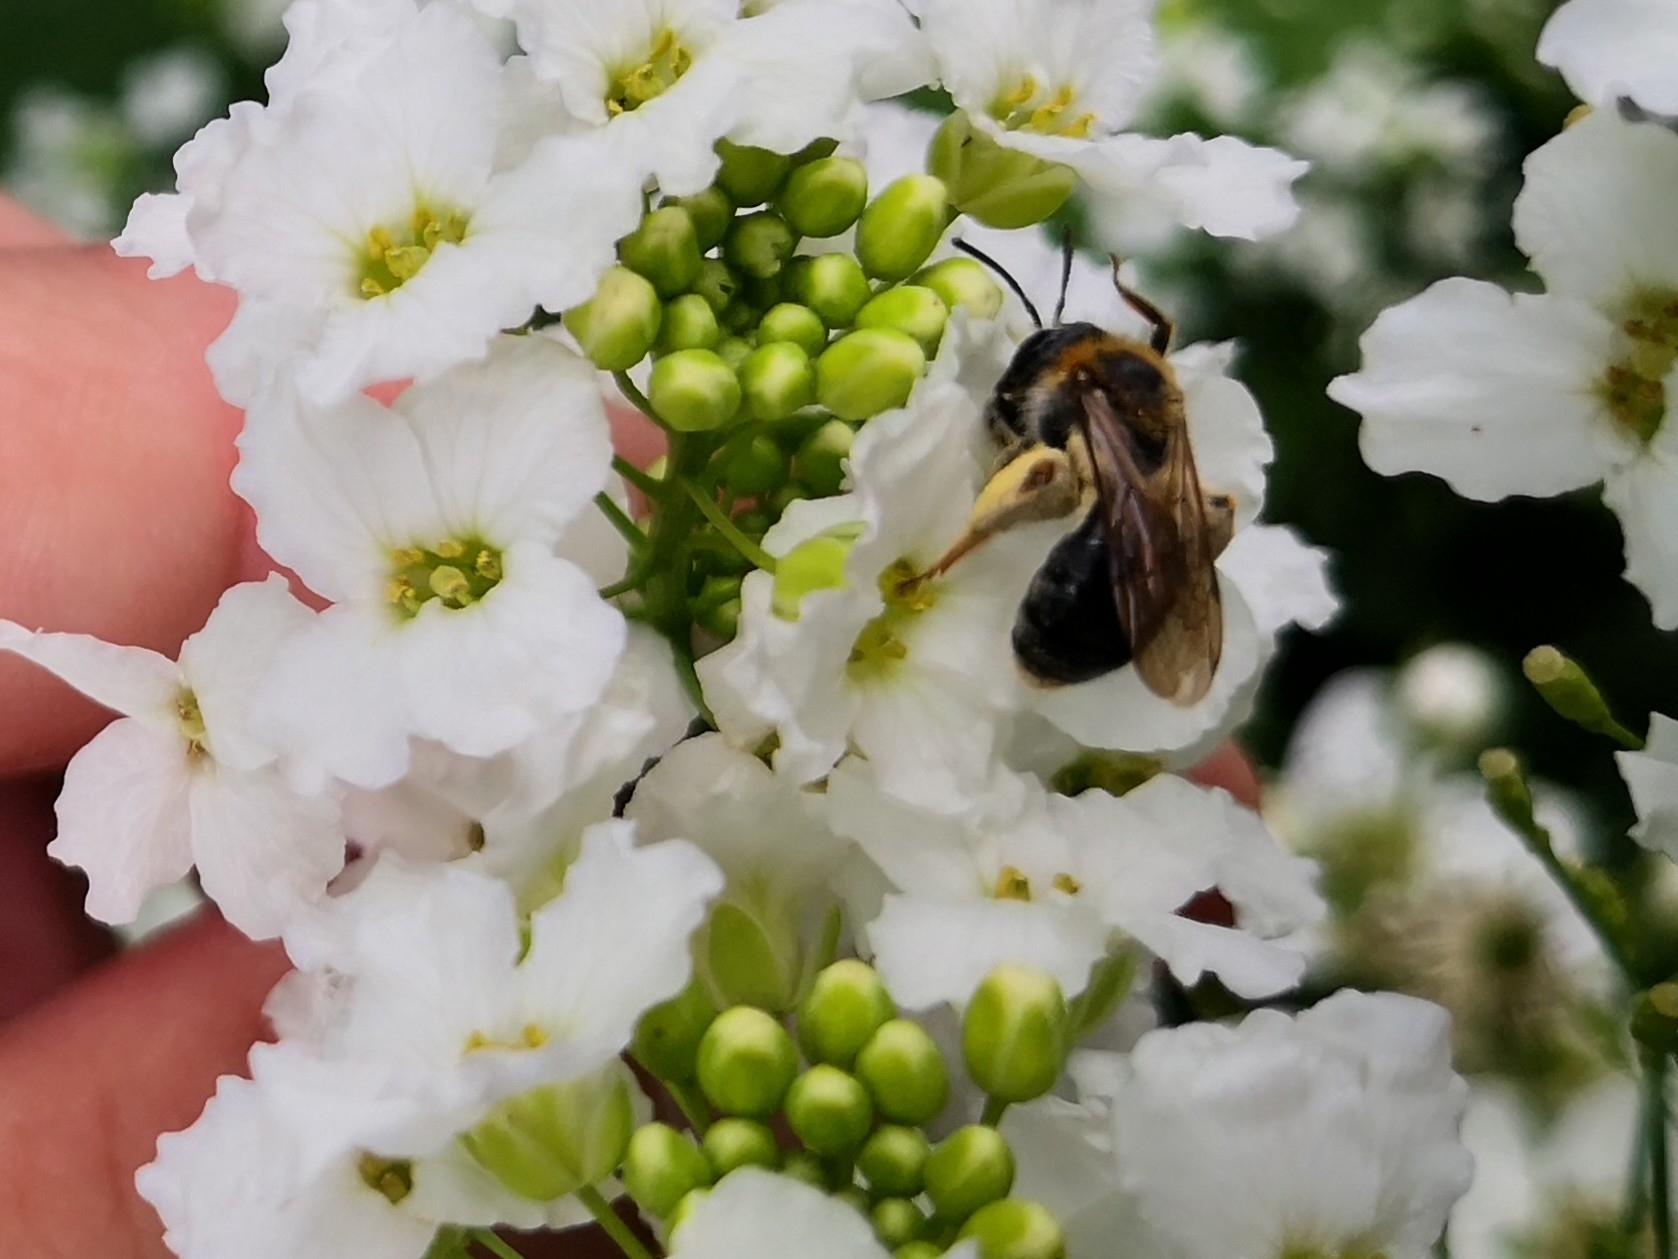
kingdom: Animalia
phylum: Arthropoda
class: Insecta
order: Hymenoptera
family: Andrenidae
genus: Andrena
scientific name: Andrena haemorrhoa
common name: Early mining bee
